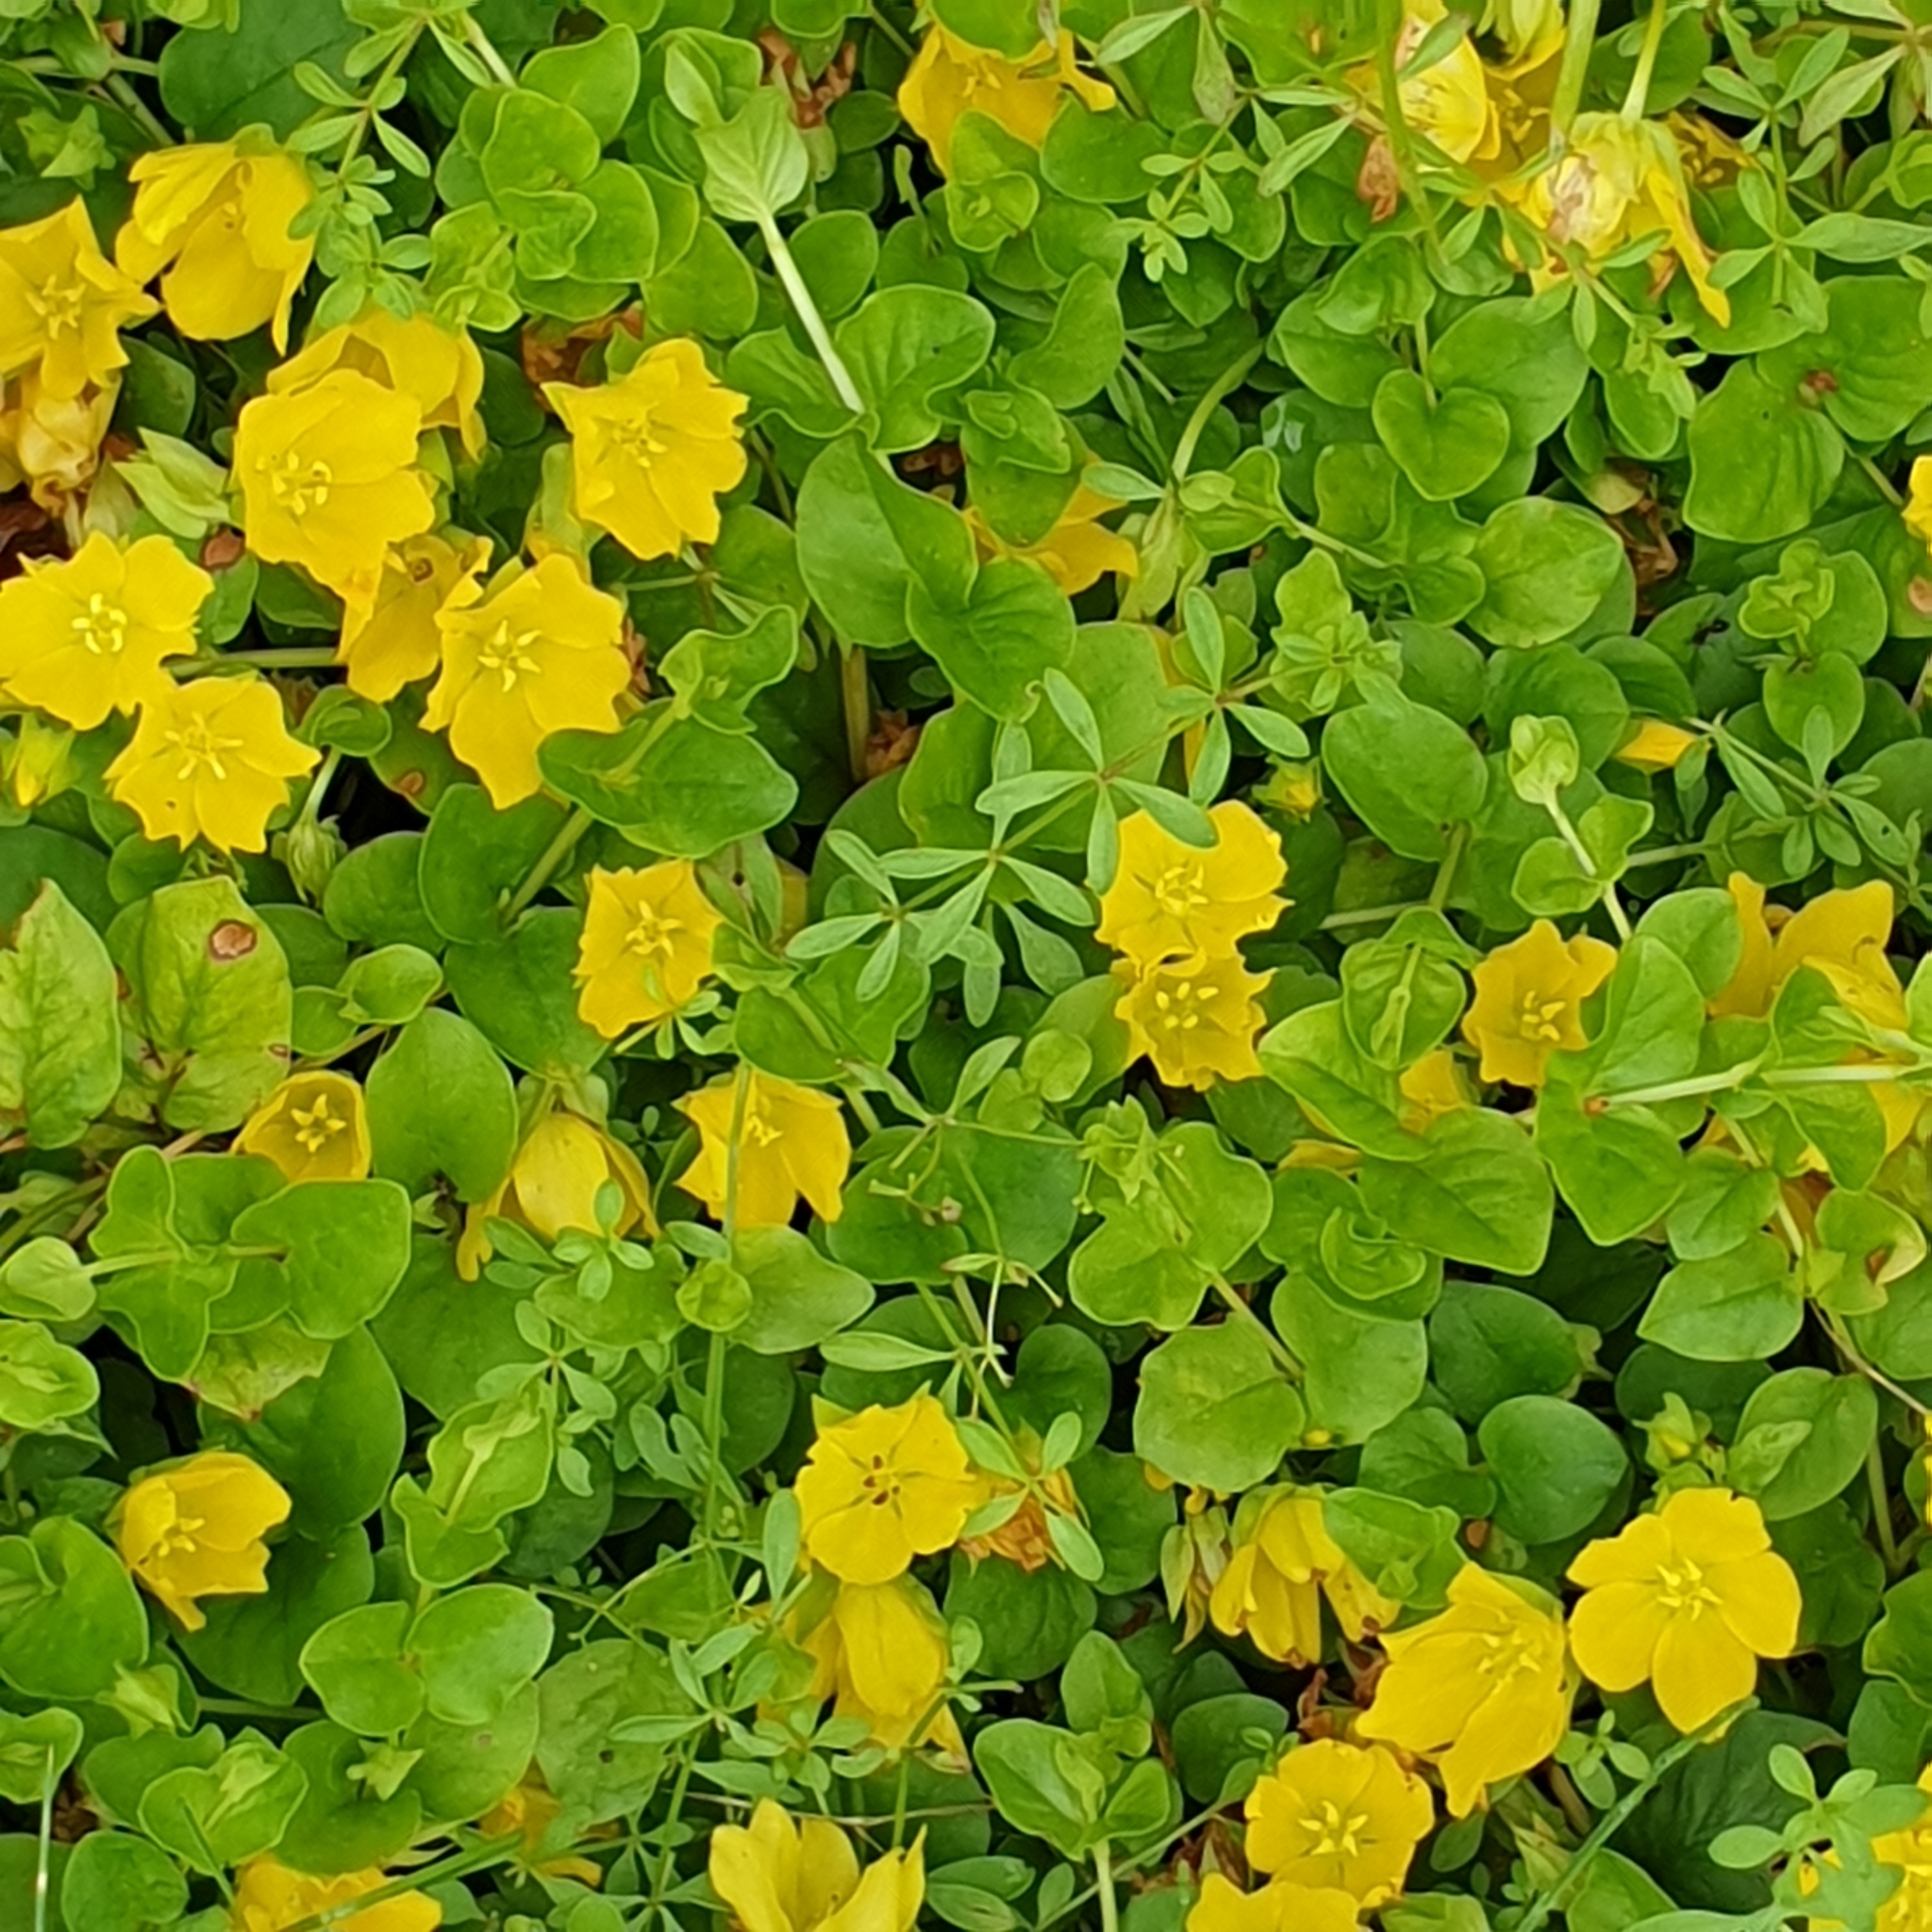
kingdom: Plantae
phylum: Tracheophyta
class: Magnoliopsida
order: Ericales
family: Primulaceae
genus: Lysimachia
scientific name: Lysimachia nummularia
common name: Moneywort
